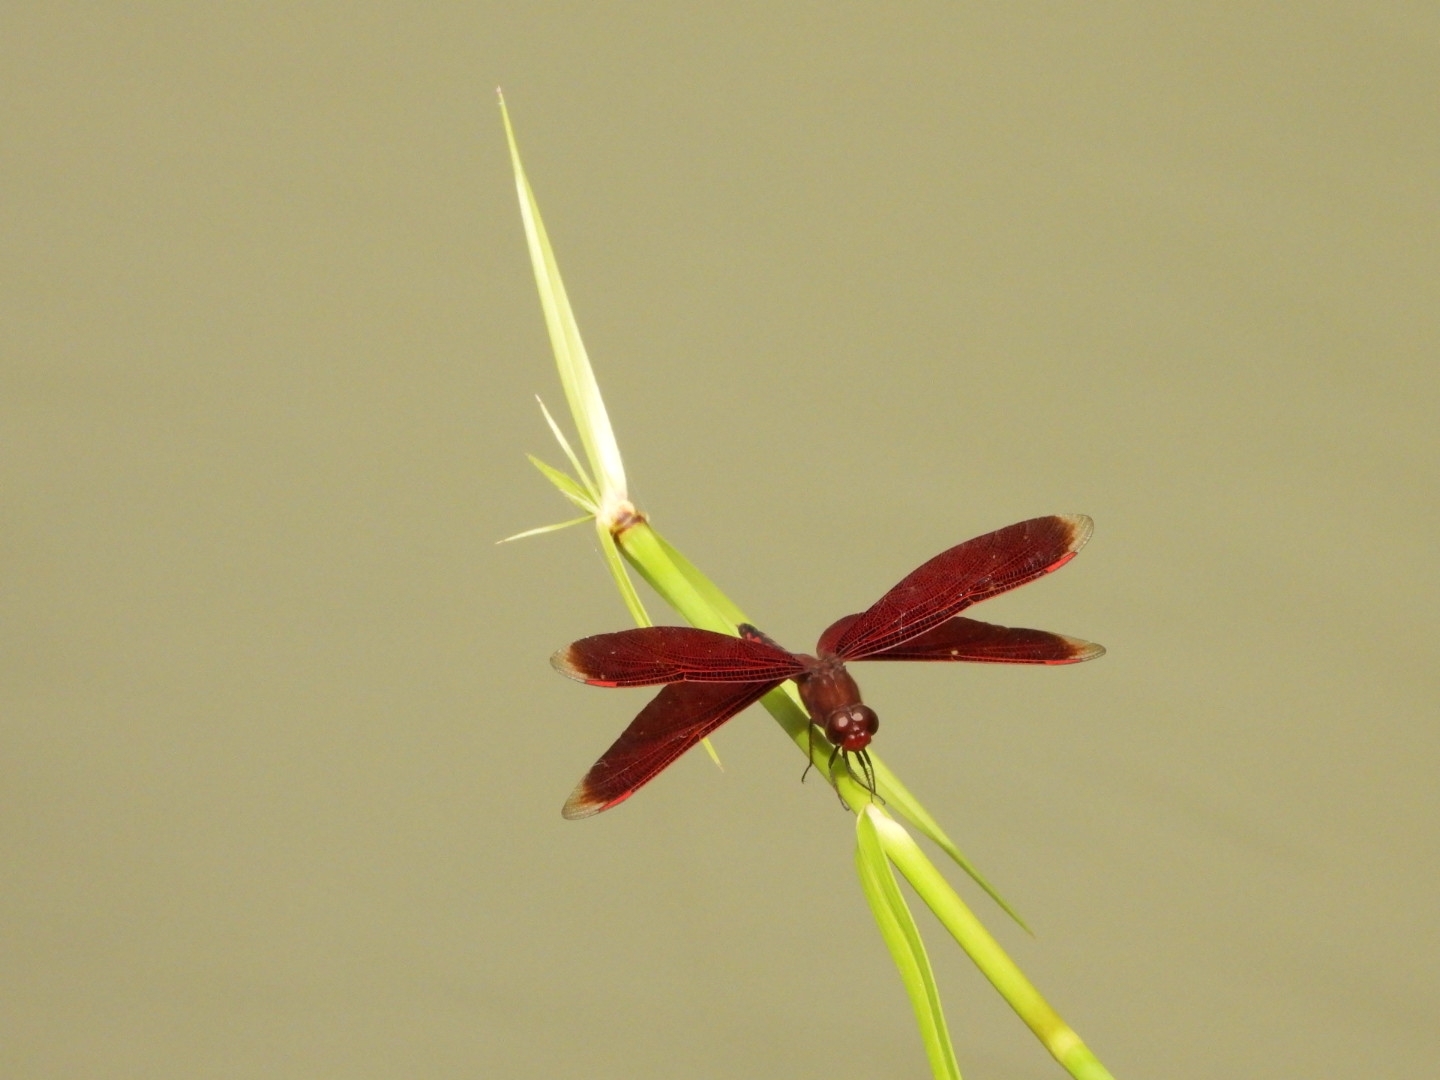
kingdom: Animalia
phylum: Arthropoda
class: Insecta
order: Odonata
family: Libellulidae
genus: Neurothemis
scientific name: Neurothemis taiwanensis
